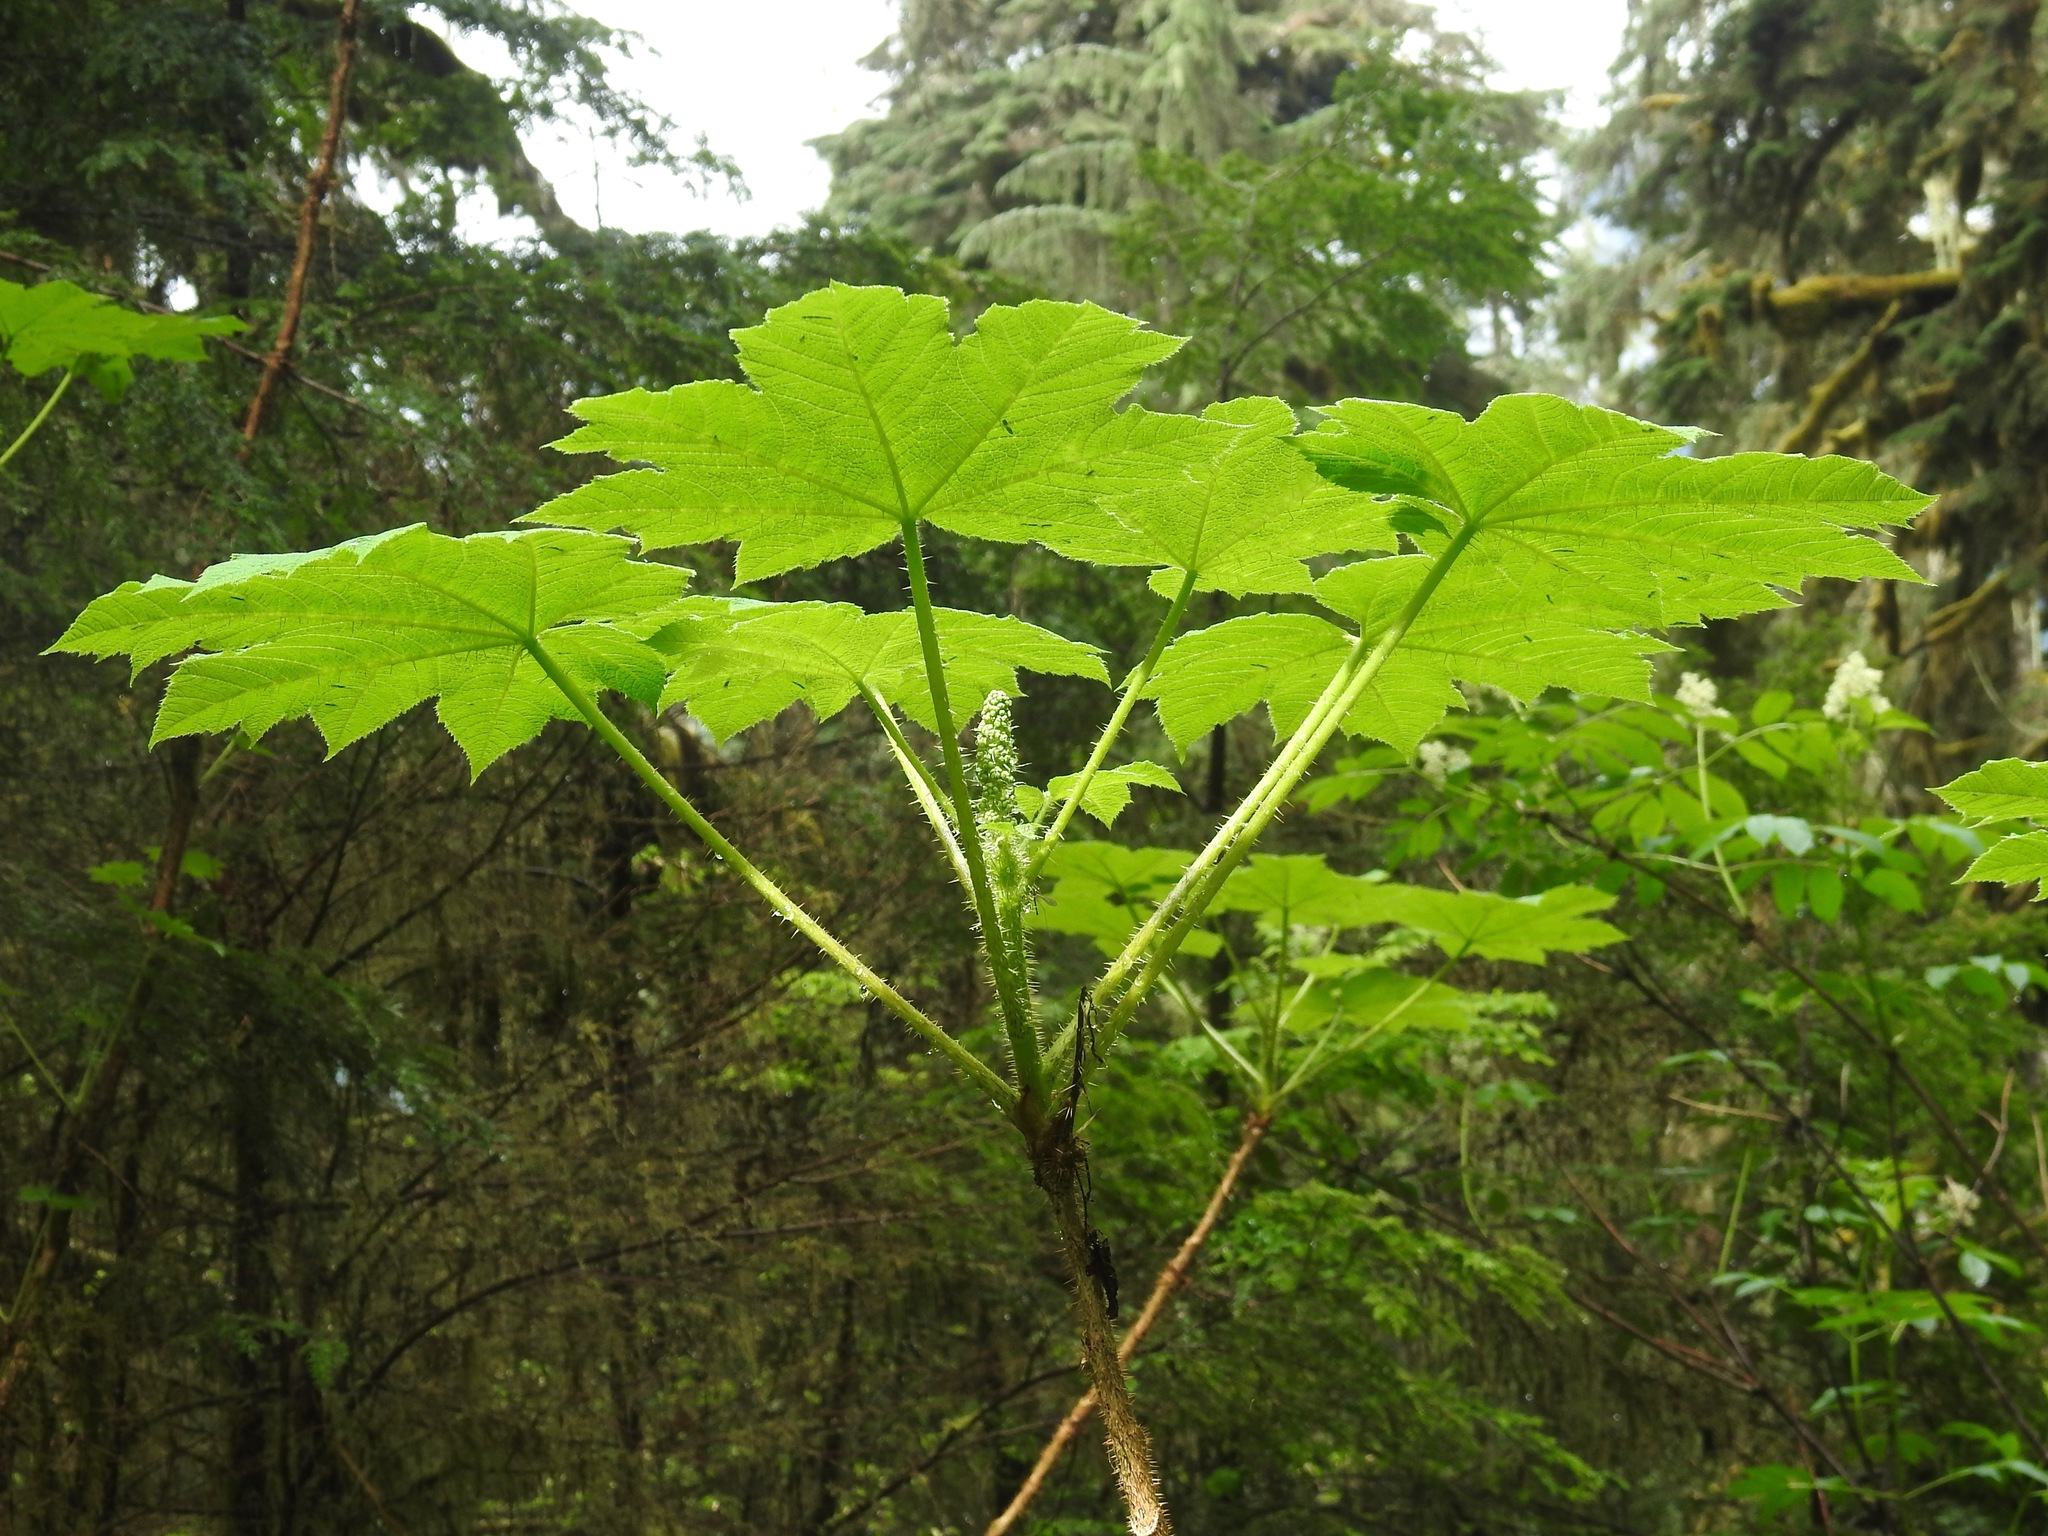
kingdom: Plantae
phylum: Tracheophyta
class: Magnoliopsida
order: Apiales
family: Araliaceae
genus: Oplopanax
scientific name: Oplopanax horridus
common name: Devil's walking-stick
